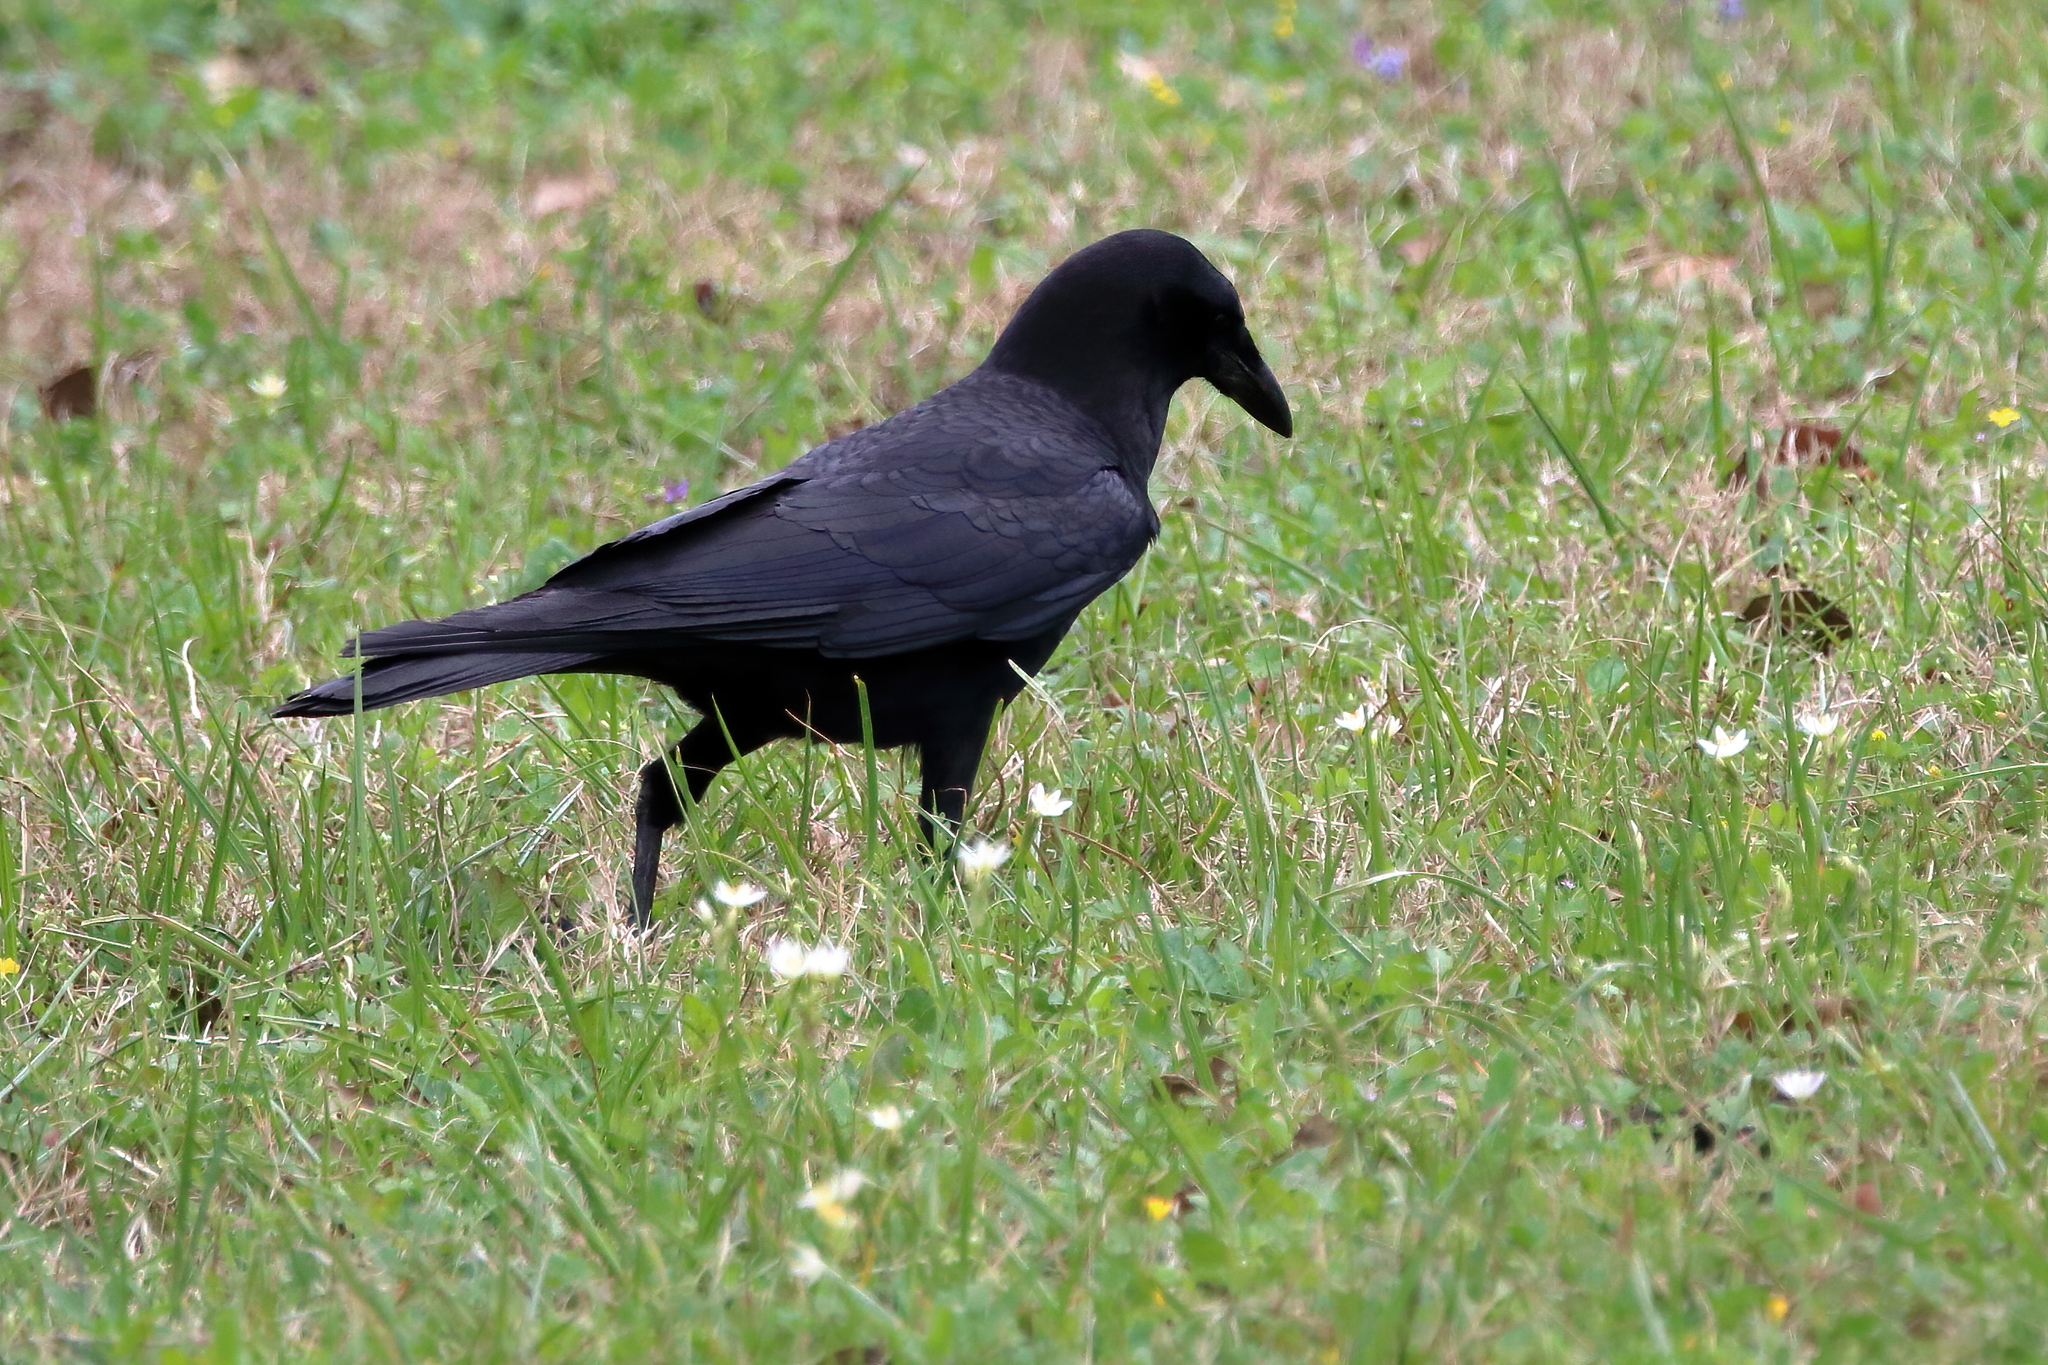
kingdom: Animalia
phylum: Chordata
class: Aves
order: Passeriformes
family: Corvidae
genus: Corvus
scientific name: Corvus brachyrhynchos
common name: American crow
